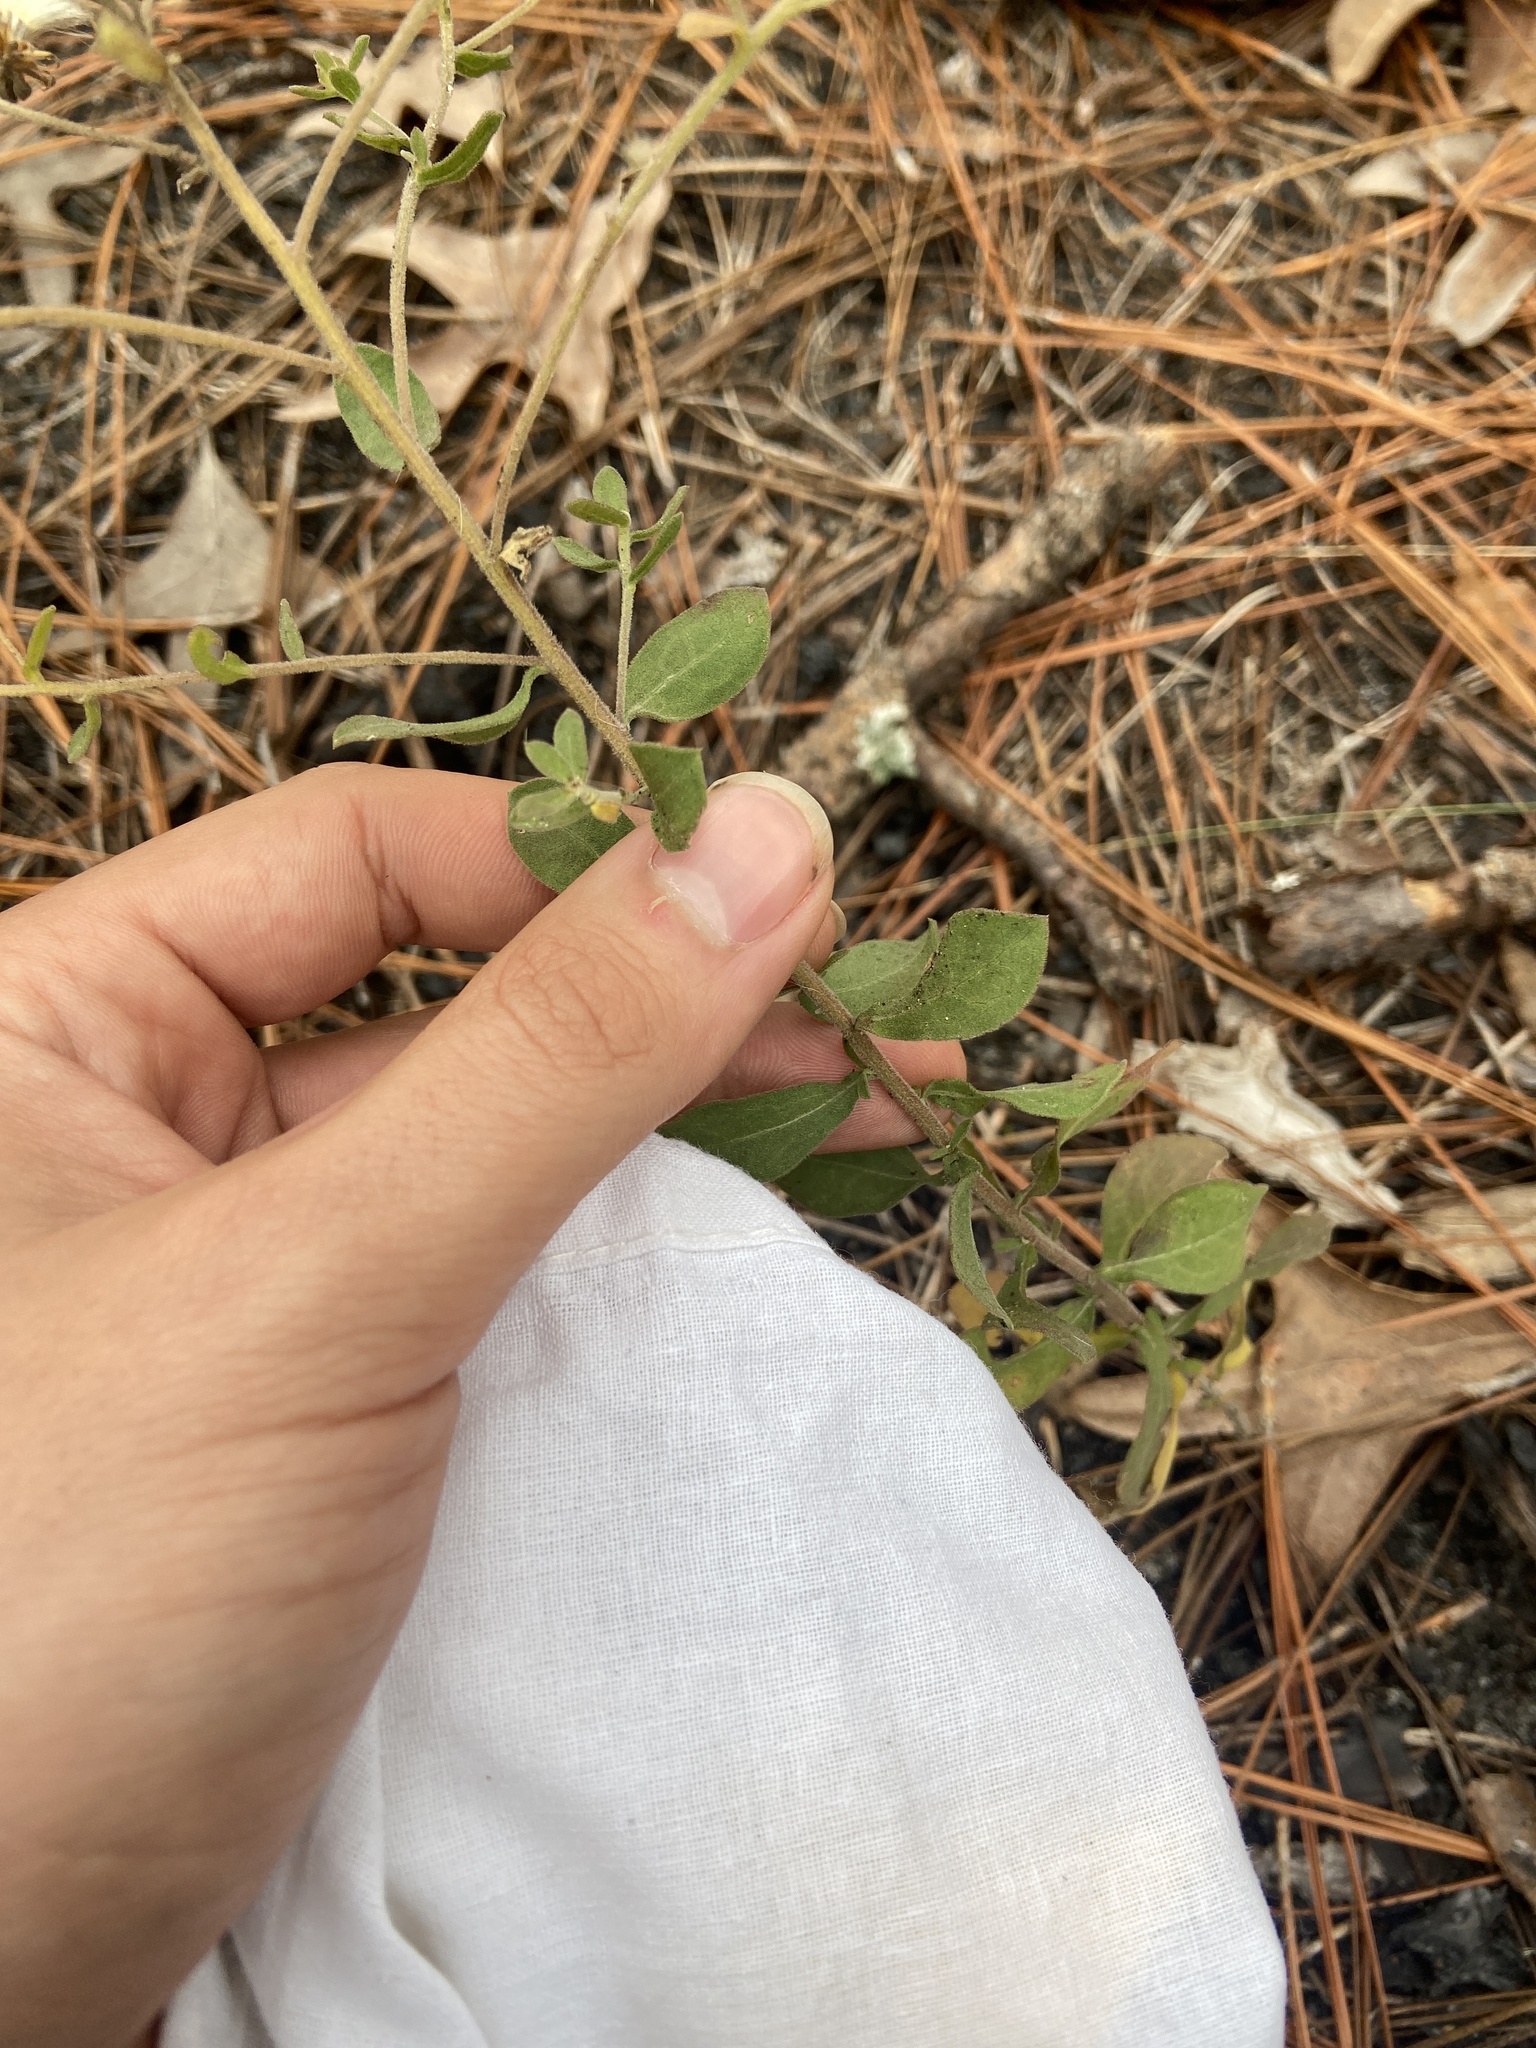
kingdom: Plantae
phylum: Tracheophyta
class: Magnoliopsida
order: Asterales
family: Asteraceae
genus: Sericocarpus
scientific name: Sericocarpus tortifolius
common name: Dixie aster
